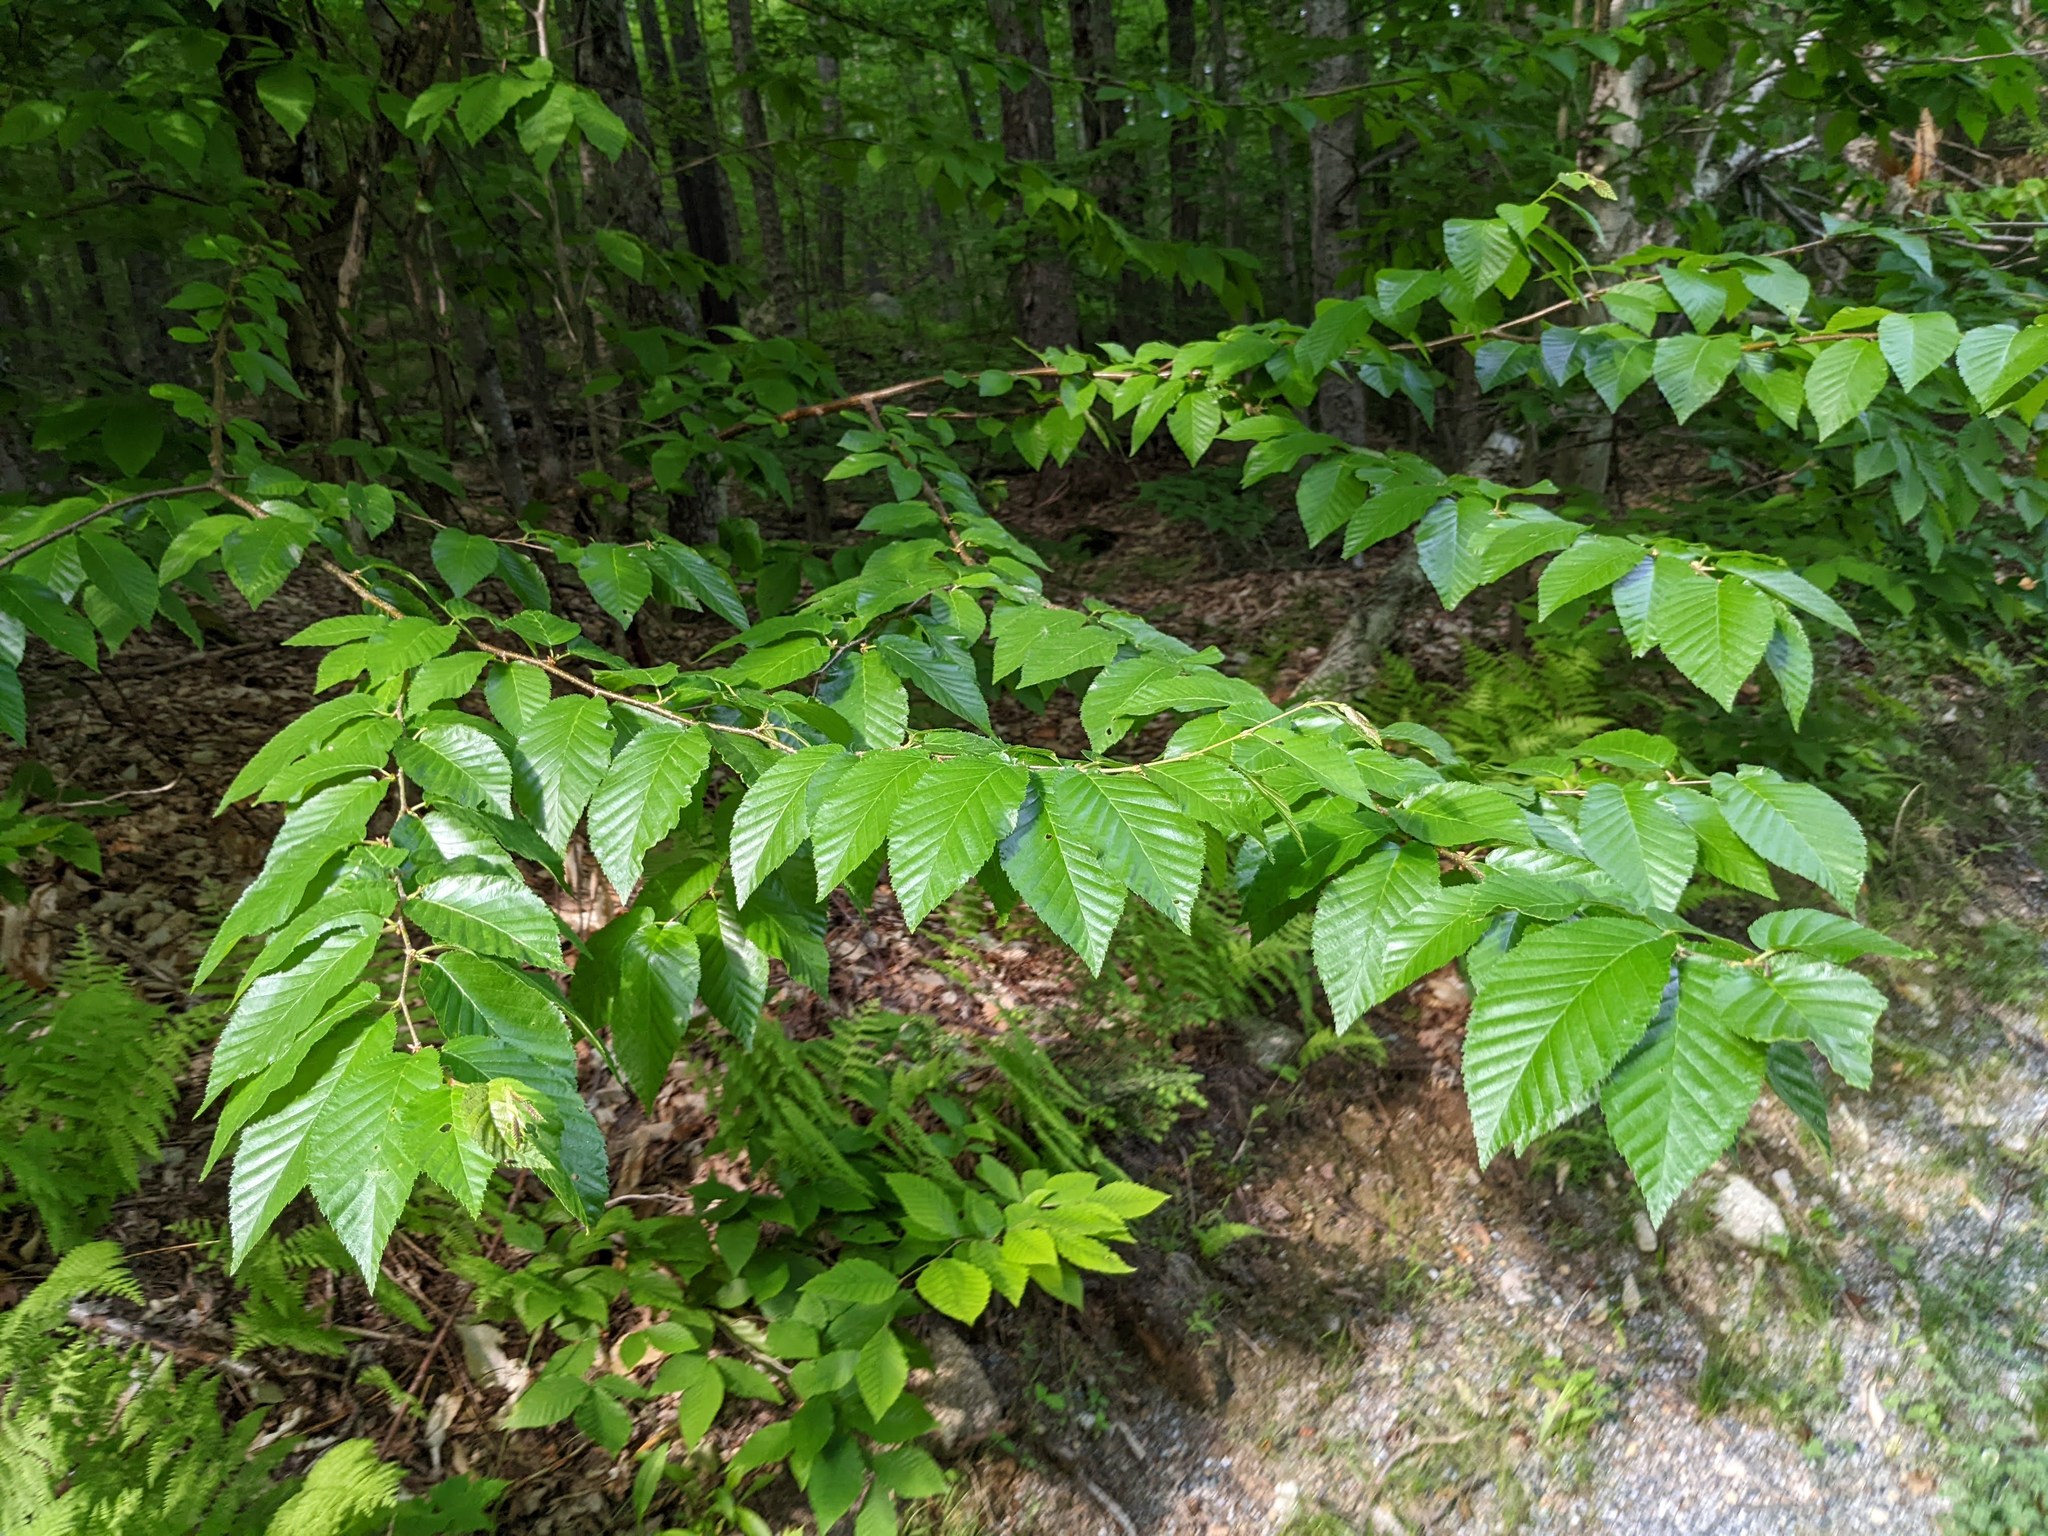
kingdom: Plantae
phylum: Tracheophyta
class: Magnoliopsida
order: Fagales
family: Fagaceae
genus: Fagus
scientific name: Fagus grandifolia
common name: American beech
